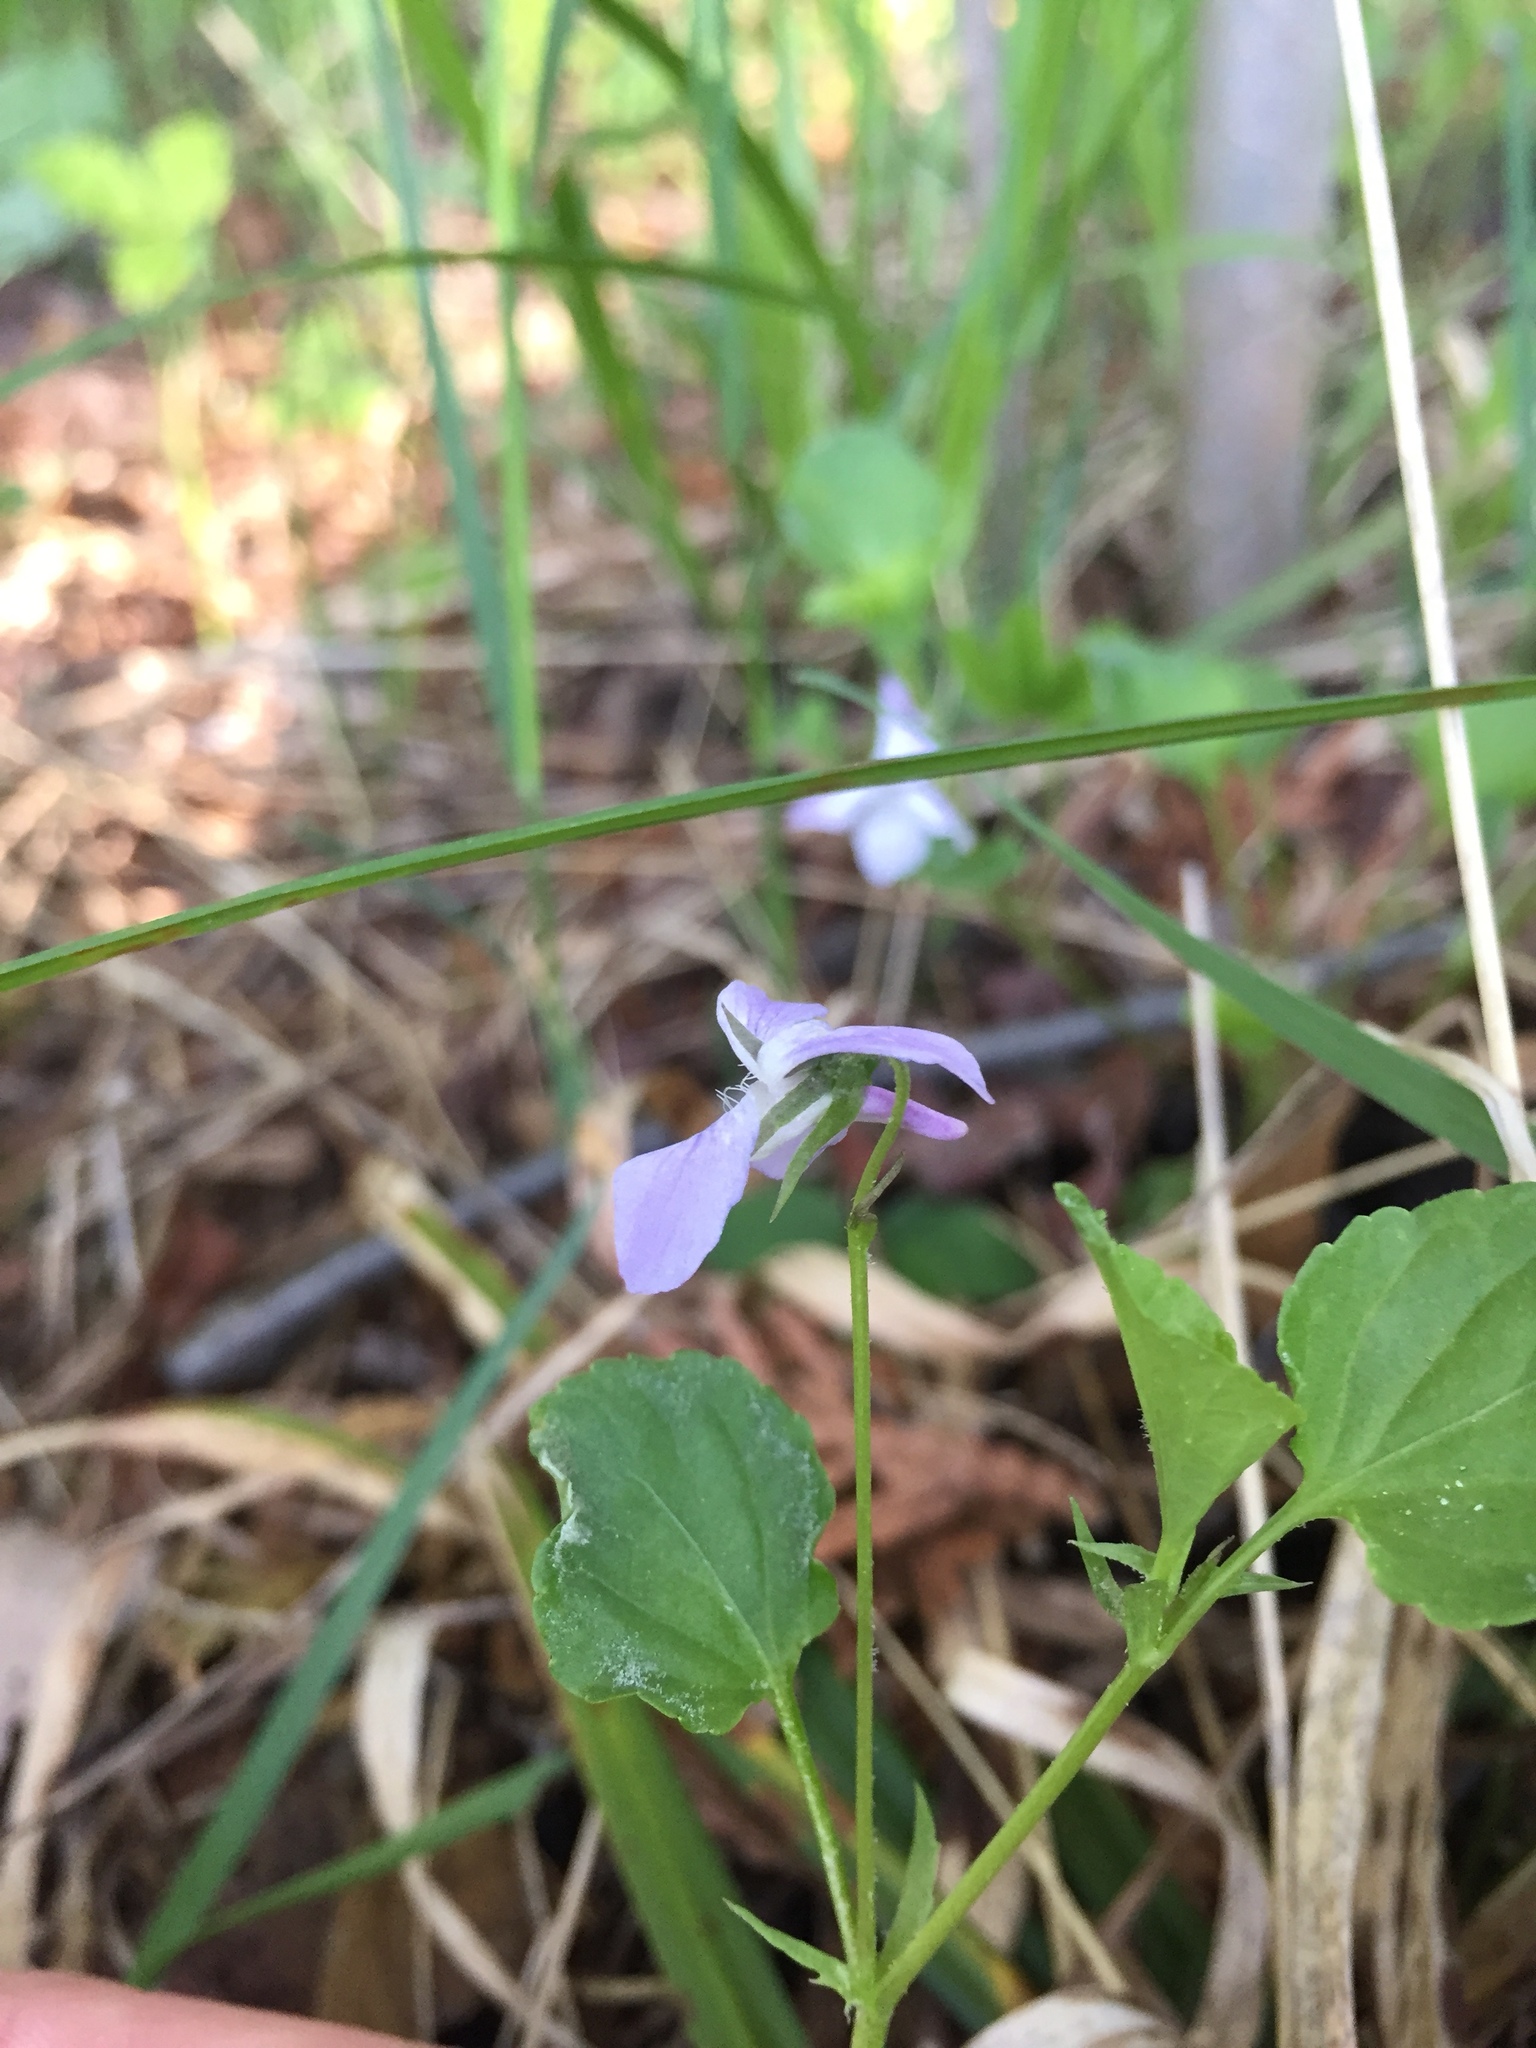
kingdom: Plantae
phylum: Tracheophyta
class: Magnoliopsida
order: Malpighiales
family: Violaceae
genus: Viola
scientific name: Viola labradorica
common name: Labrador violet
